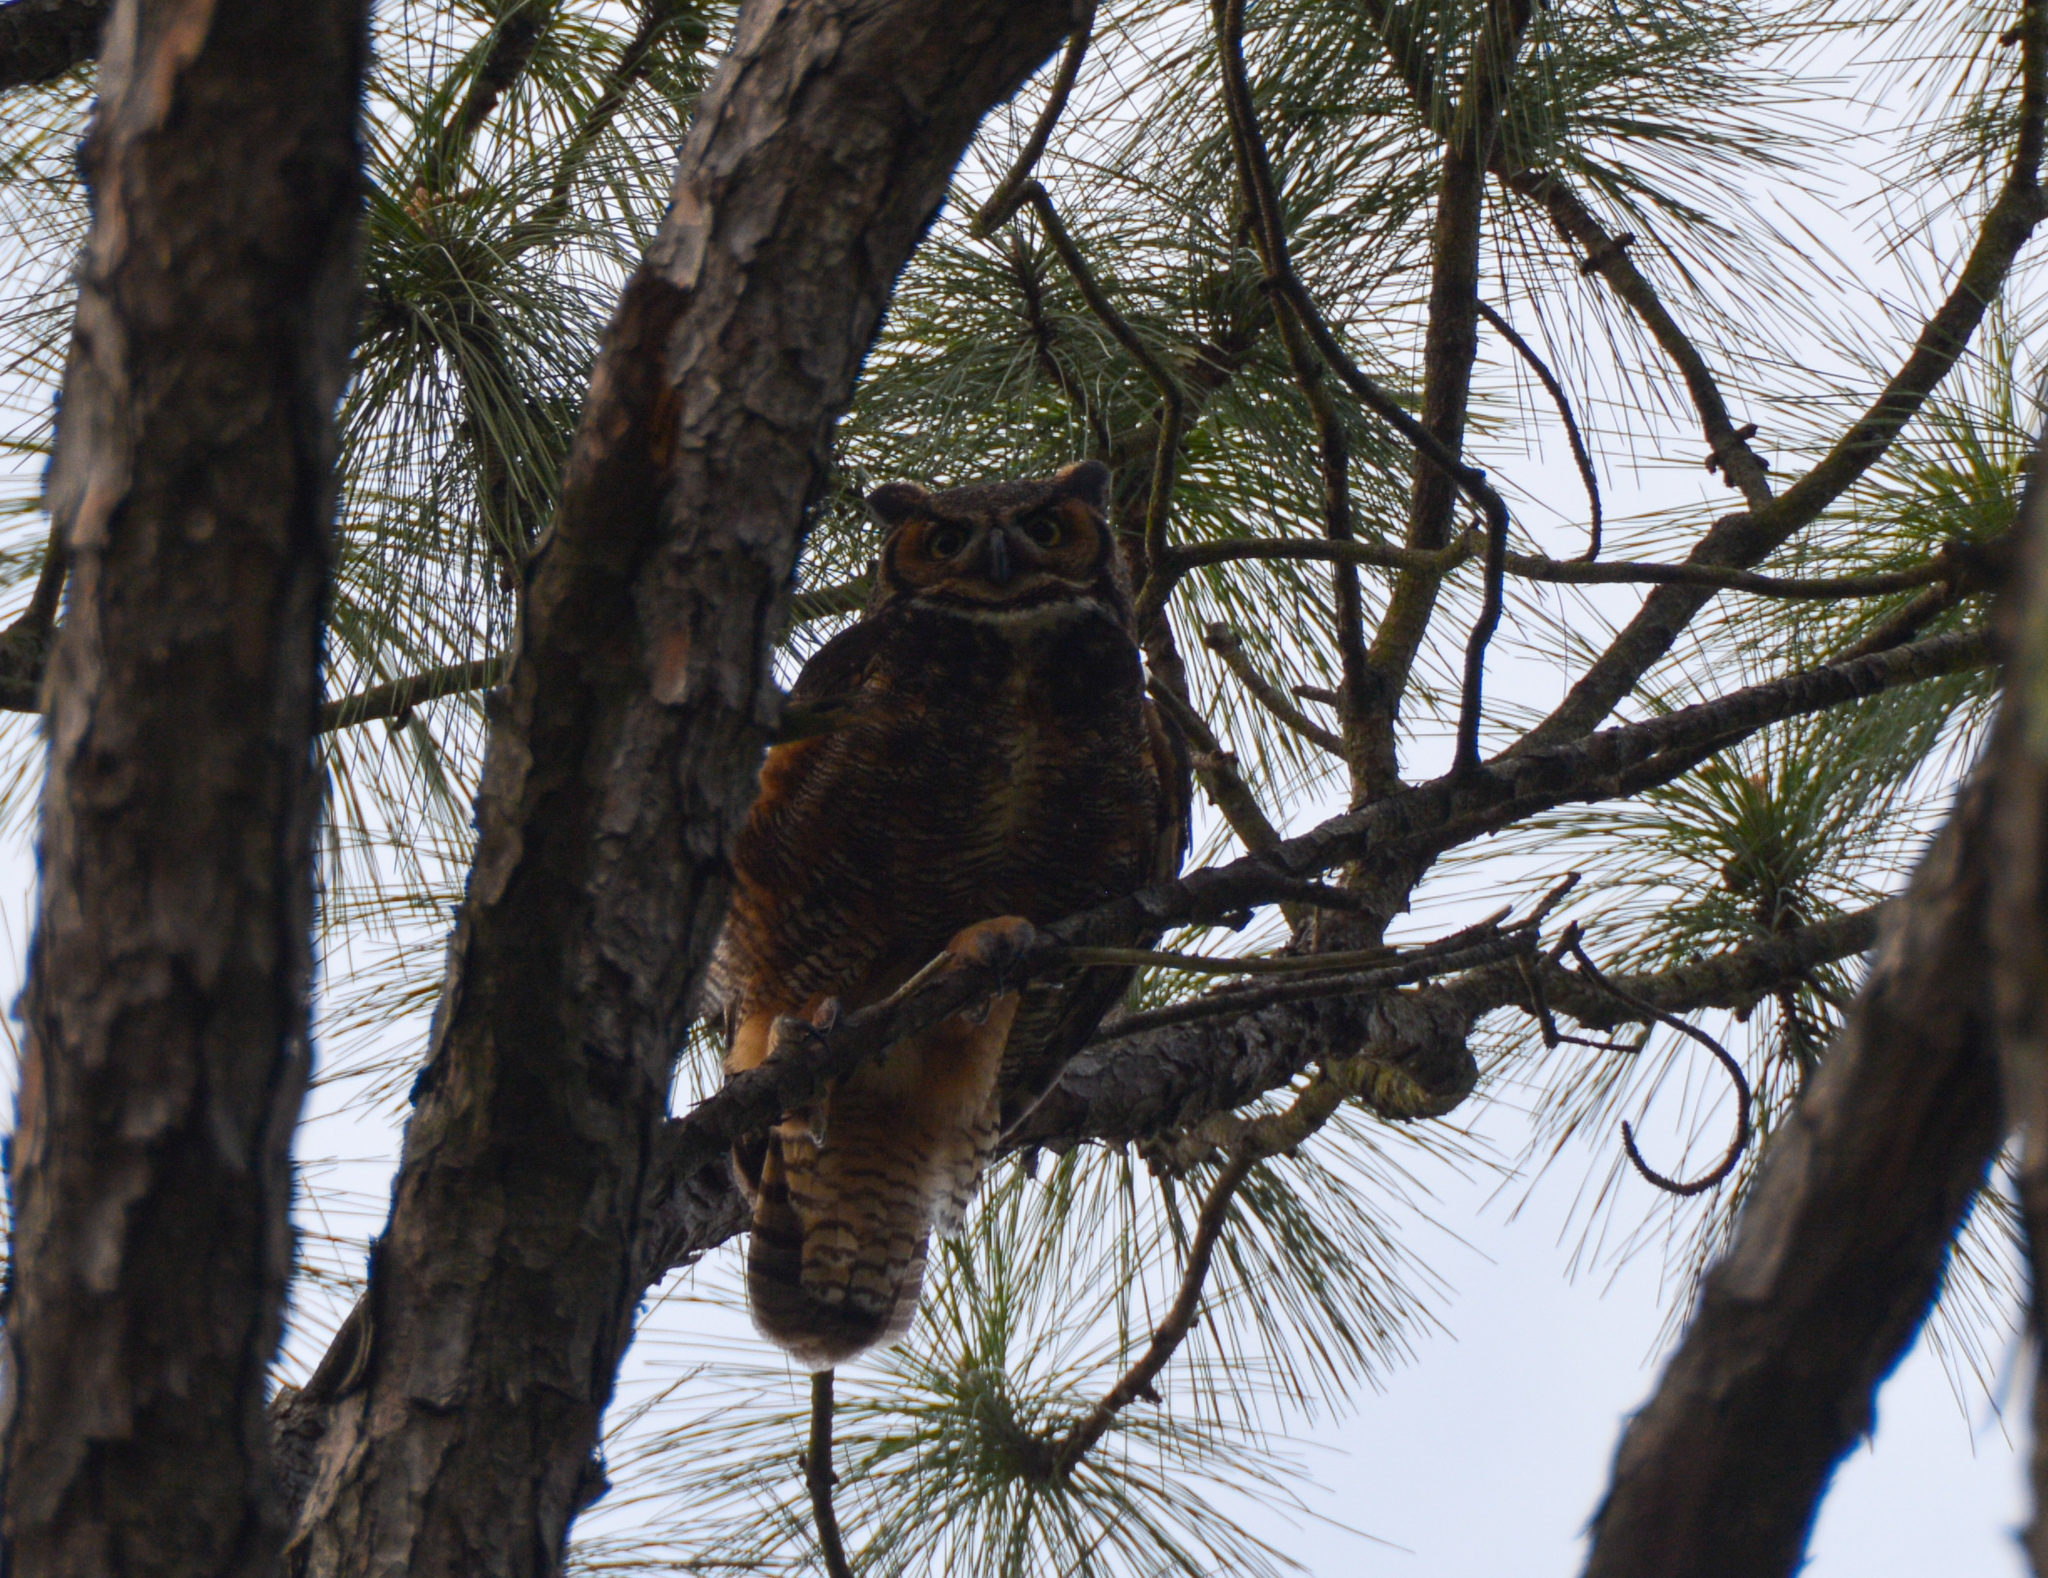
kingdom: Animalia
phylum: Chordata
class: Aves
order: Strigiformes
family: Strigidae
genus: Bubo
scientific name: Bubo virginianus
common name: Great horned owl
